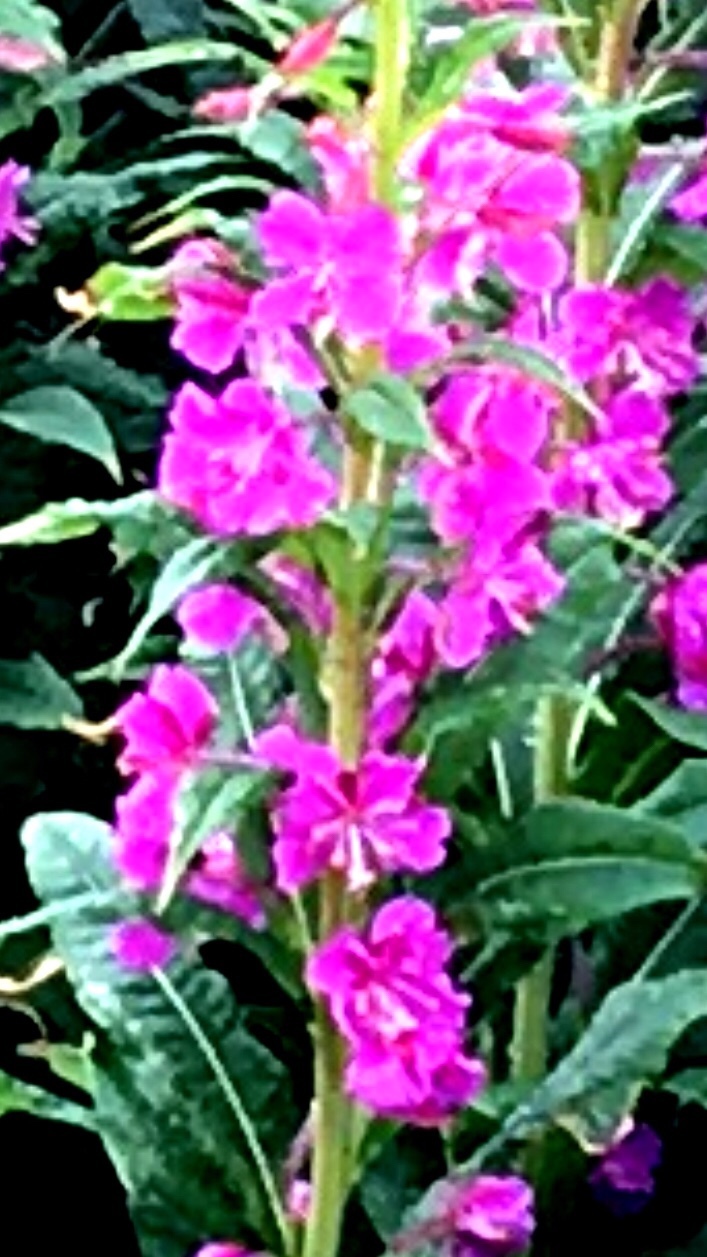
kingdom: Plantae
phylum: Tracheophyta
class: Magnoliopsida
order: Myrtales
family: Onagraceae
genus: Chamaenerion
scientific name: Chamaenerion angustifolium
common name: Fireweed
